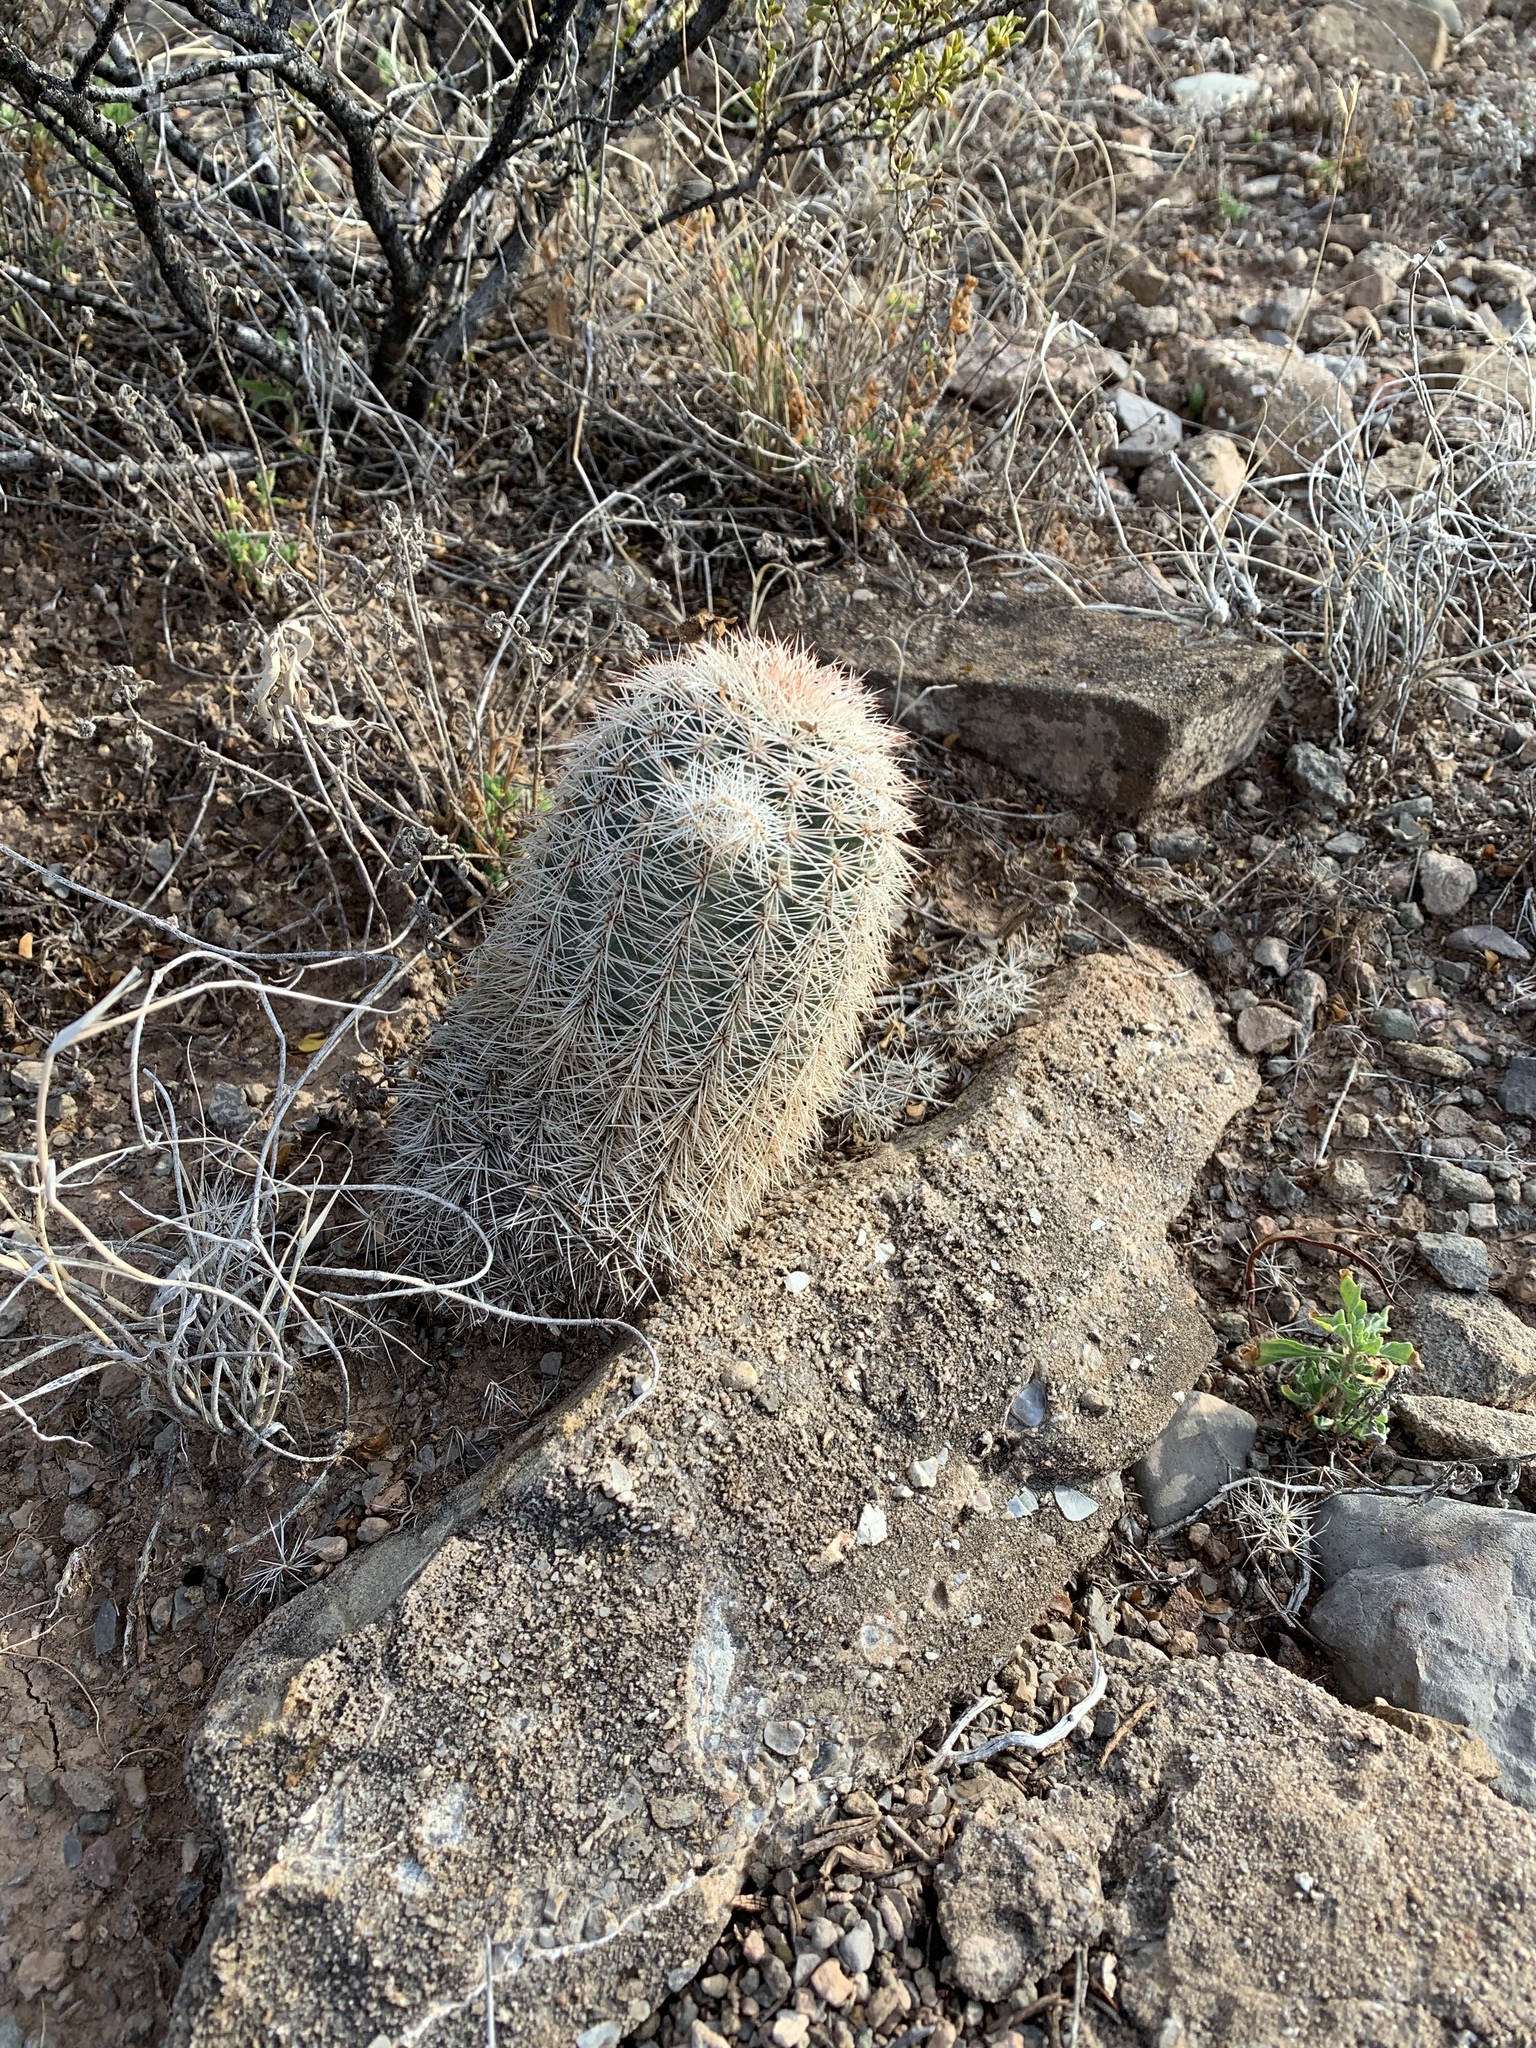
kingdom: Plantae
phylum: Tracheophyta
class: Magnoliopsida
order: Caryophyllales
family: Cactaceae
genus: Echinocereus
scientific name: Echinocereus dasyacanthus
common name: Spiny hedgehog cactus
